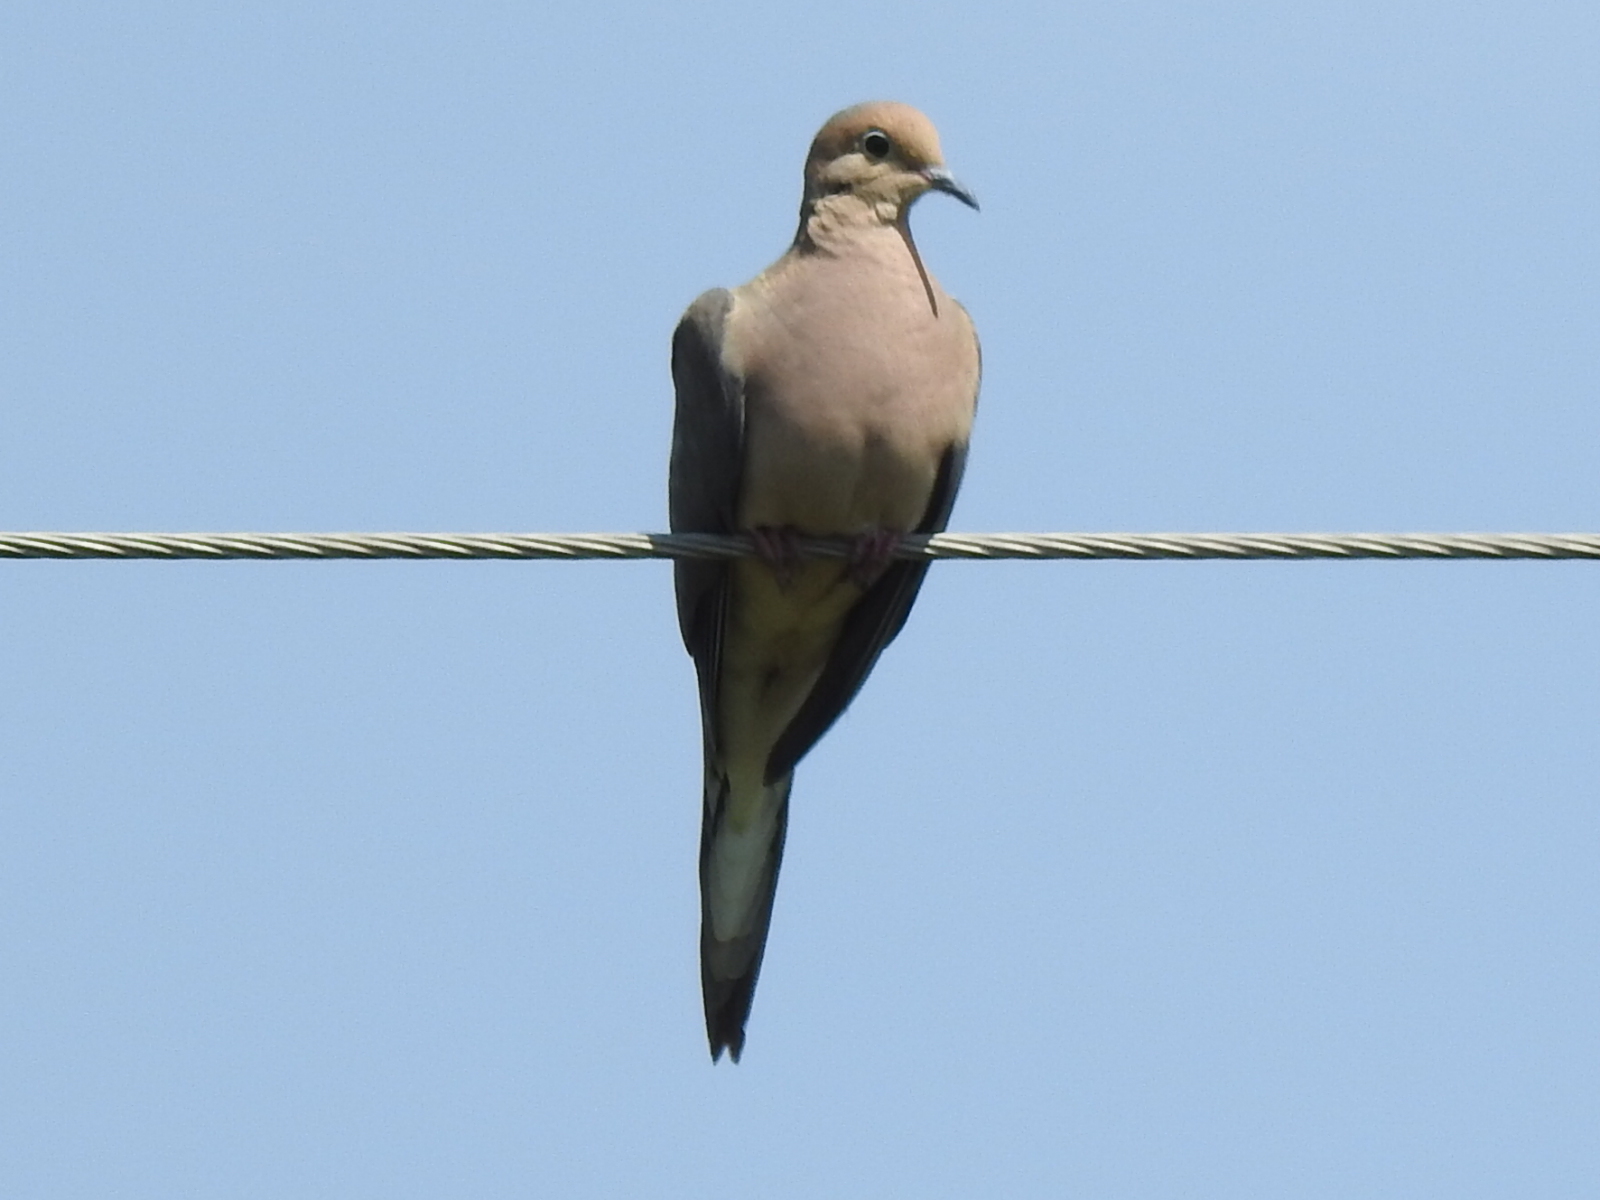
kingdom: Animalia
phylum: Chordata
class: Aves
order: Columbiformes
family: Columbidae
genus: Zenaida
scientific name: Zenaida macroura
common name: Mourning dove
